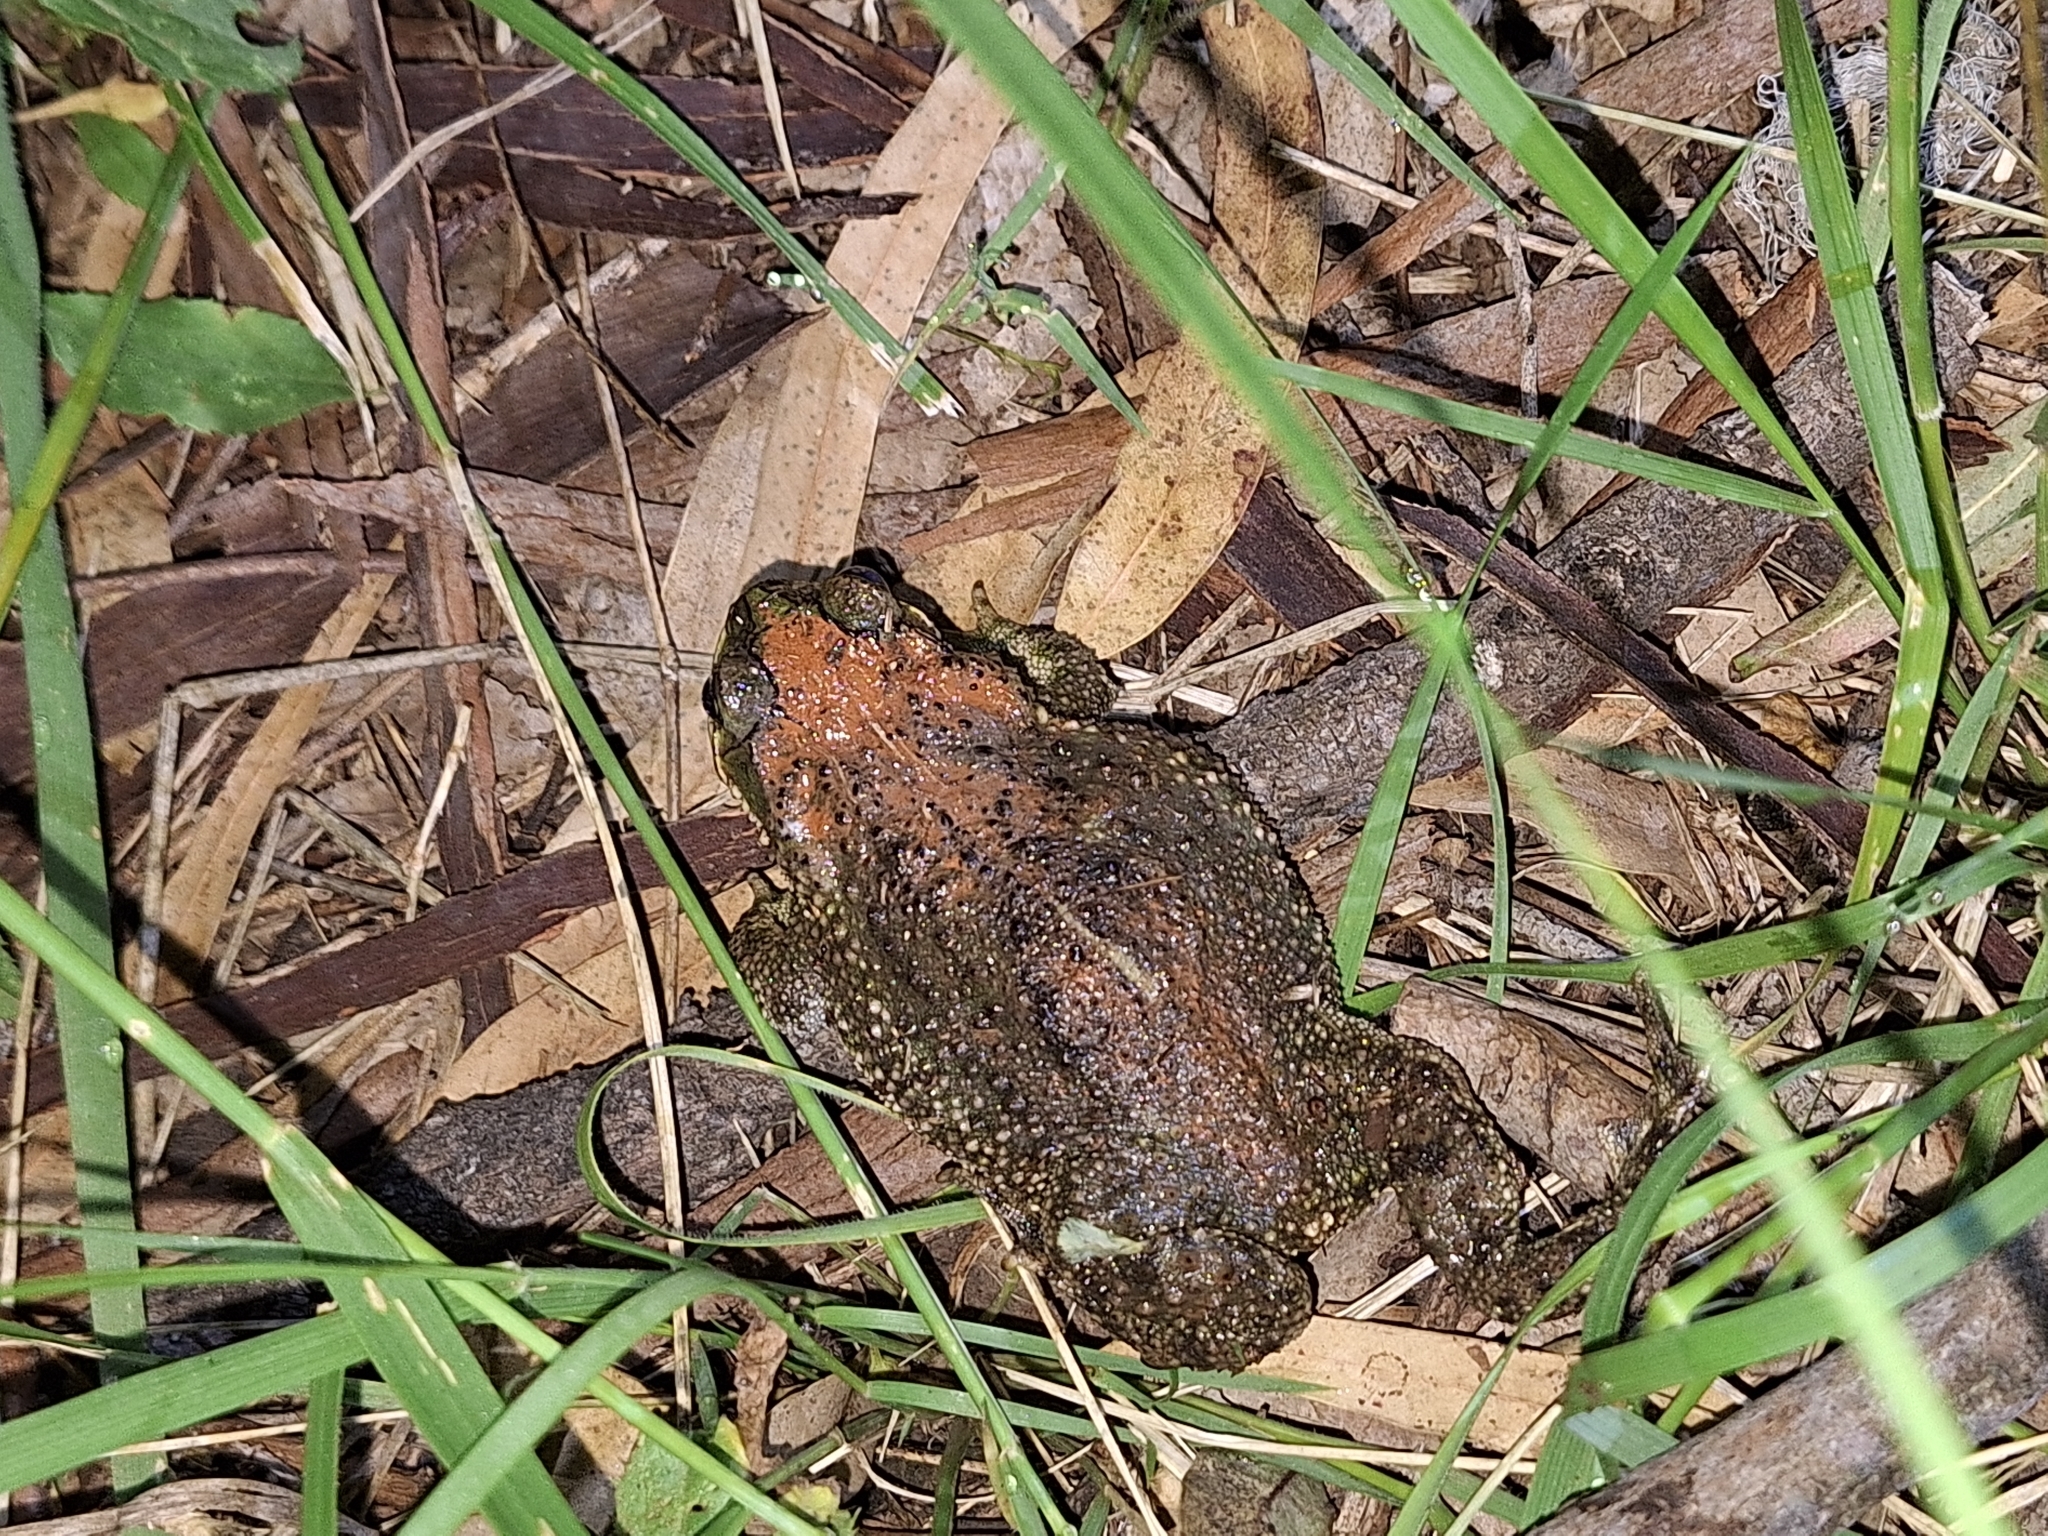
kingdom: Animalia
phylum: Chordata
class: Amphibia
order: Anura
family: Bufonidae
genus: Rhinella
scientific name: Rhinella dorbignyi
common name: D´orbigny’s toad
